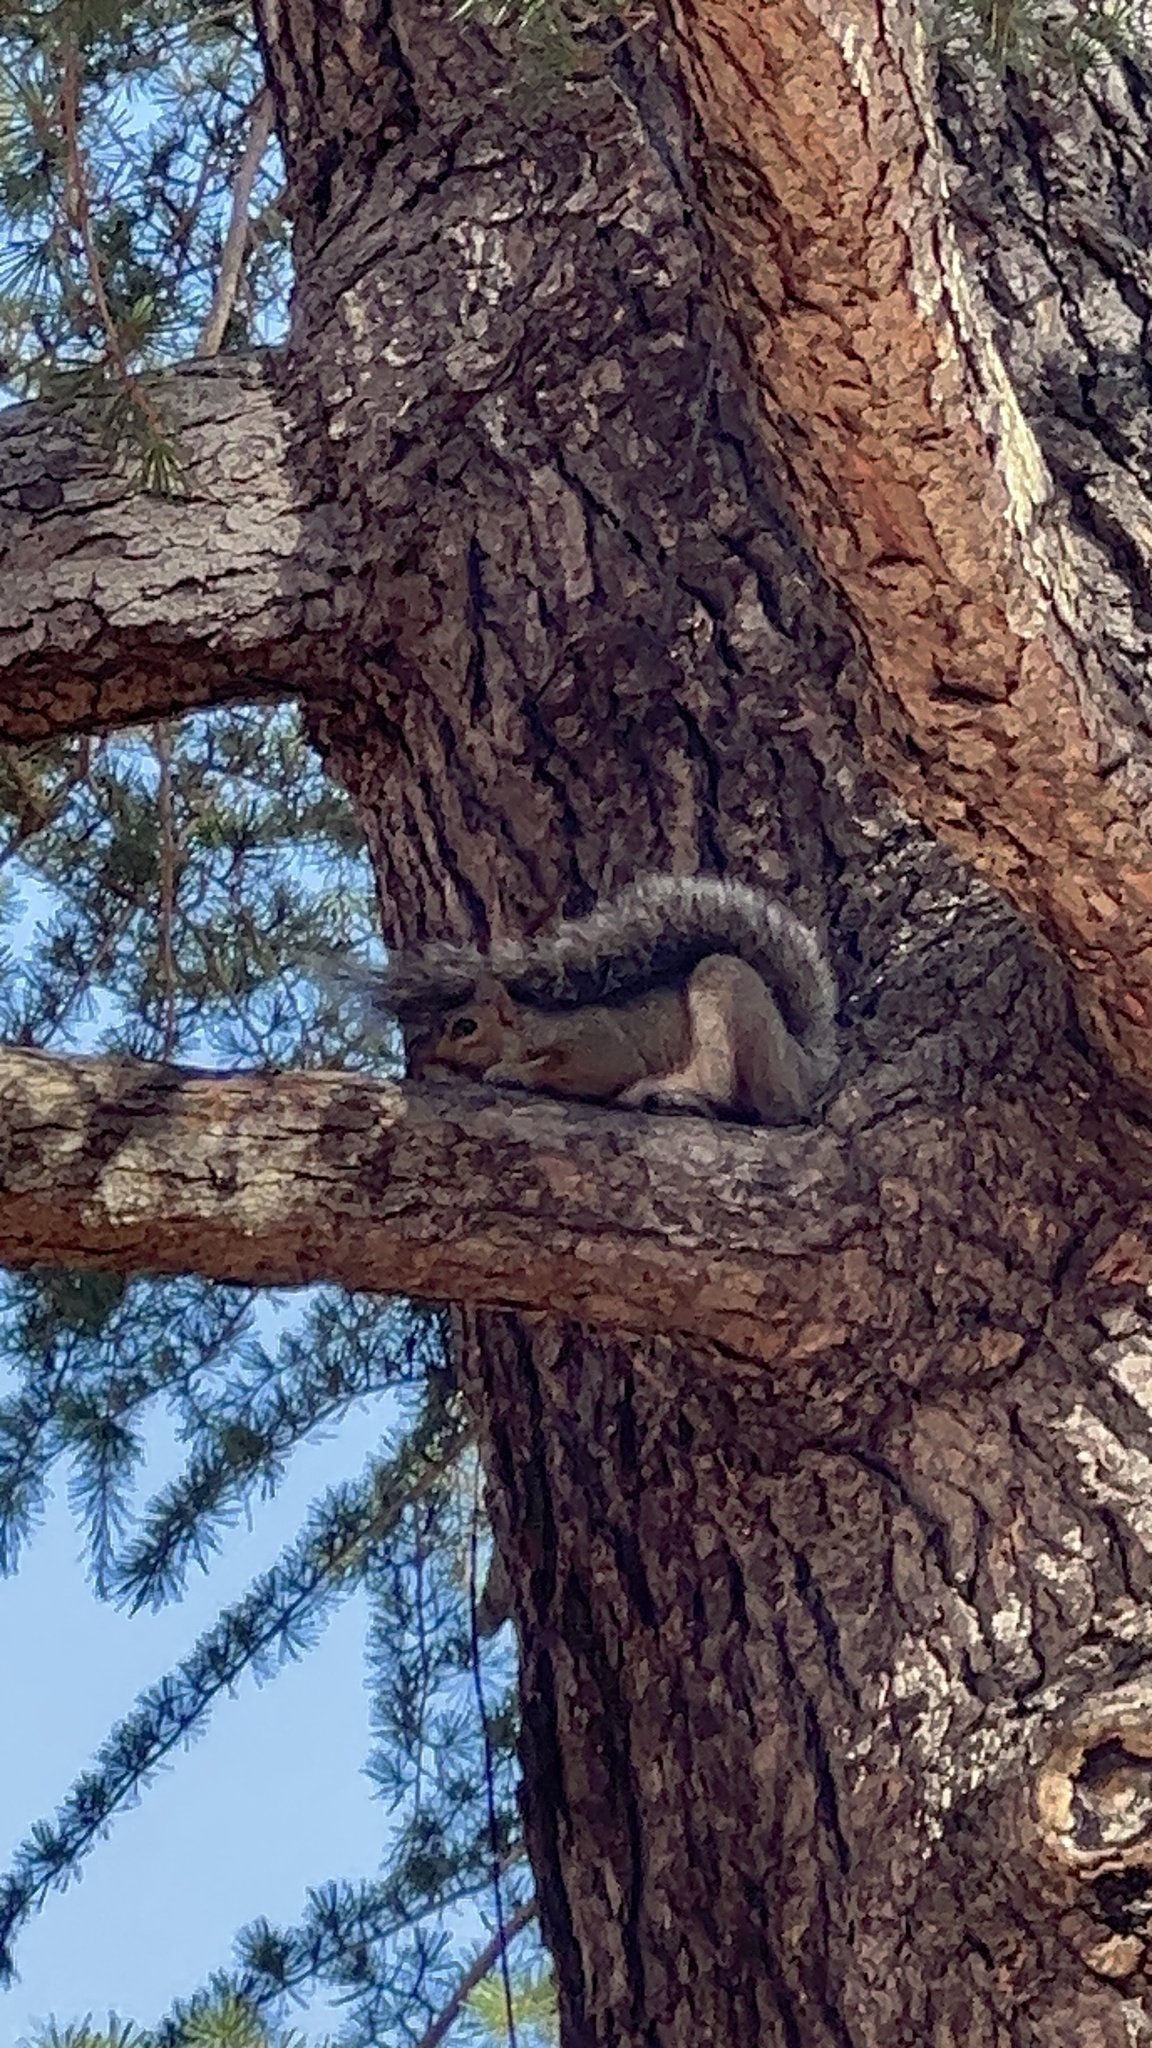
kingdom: Animalia
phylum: Chordata
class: Mammalia
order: Rodentia
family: Sciuridae
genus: Sciurus
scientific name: Sciurus carolinensis
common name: Eastern gray squirrel
